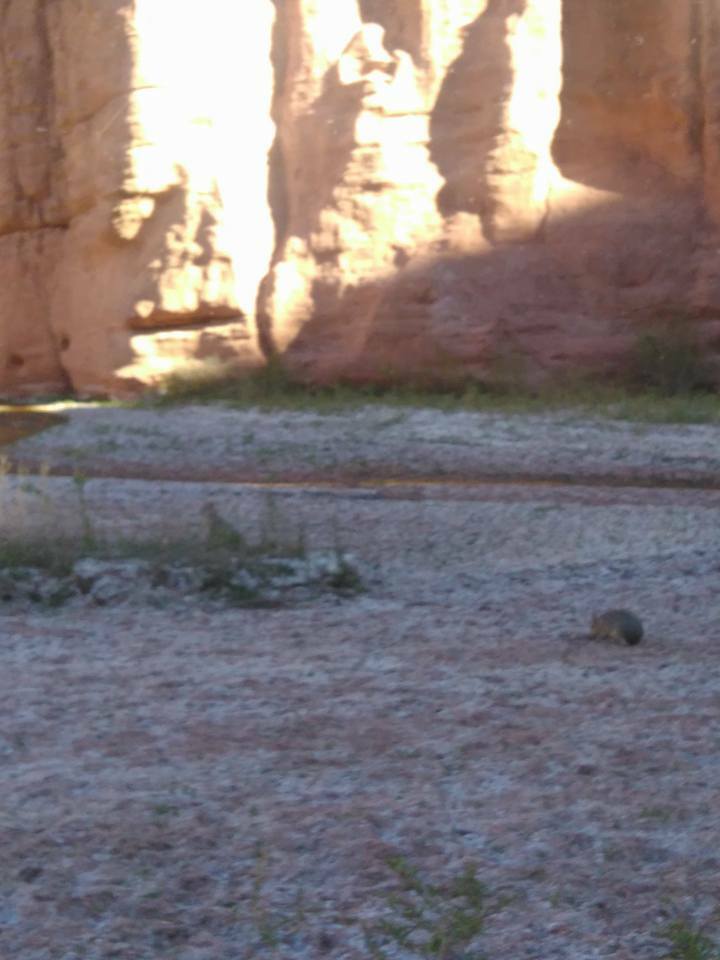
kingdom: Animalia
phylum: Chordata
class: Mammalia
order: Rodentia
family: Caviidae
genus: Dolichotis
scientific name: Dolichotis patagonum
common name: Patagonian mara
